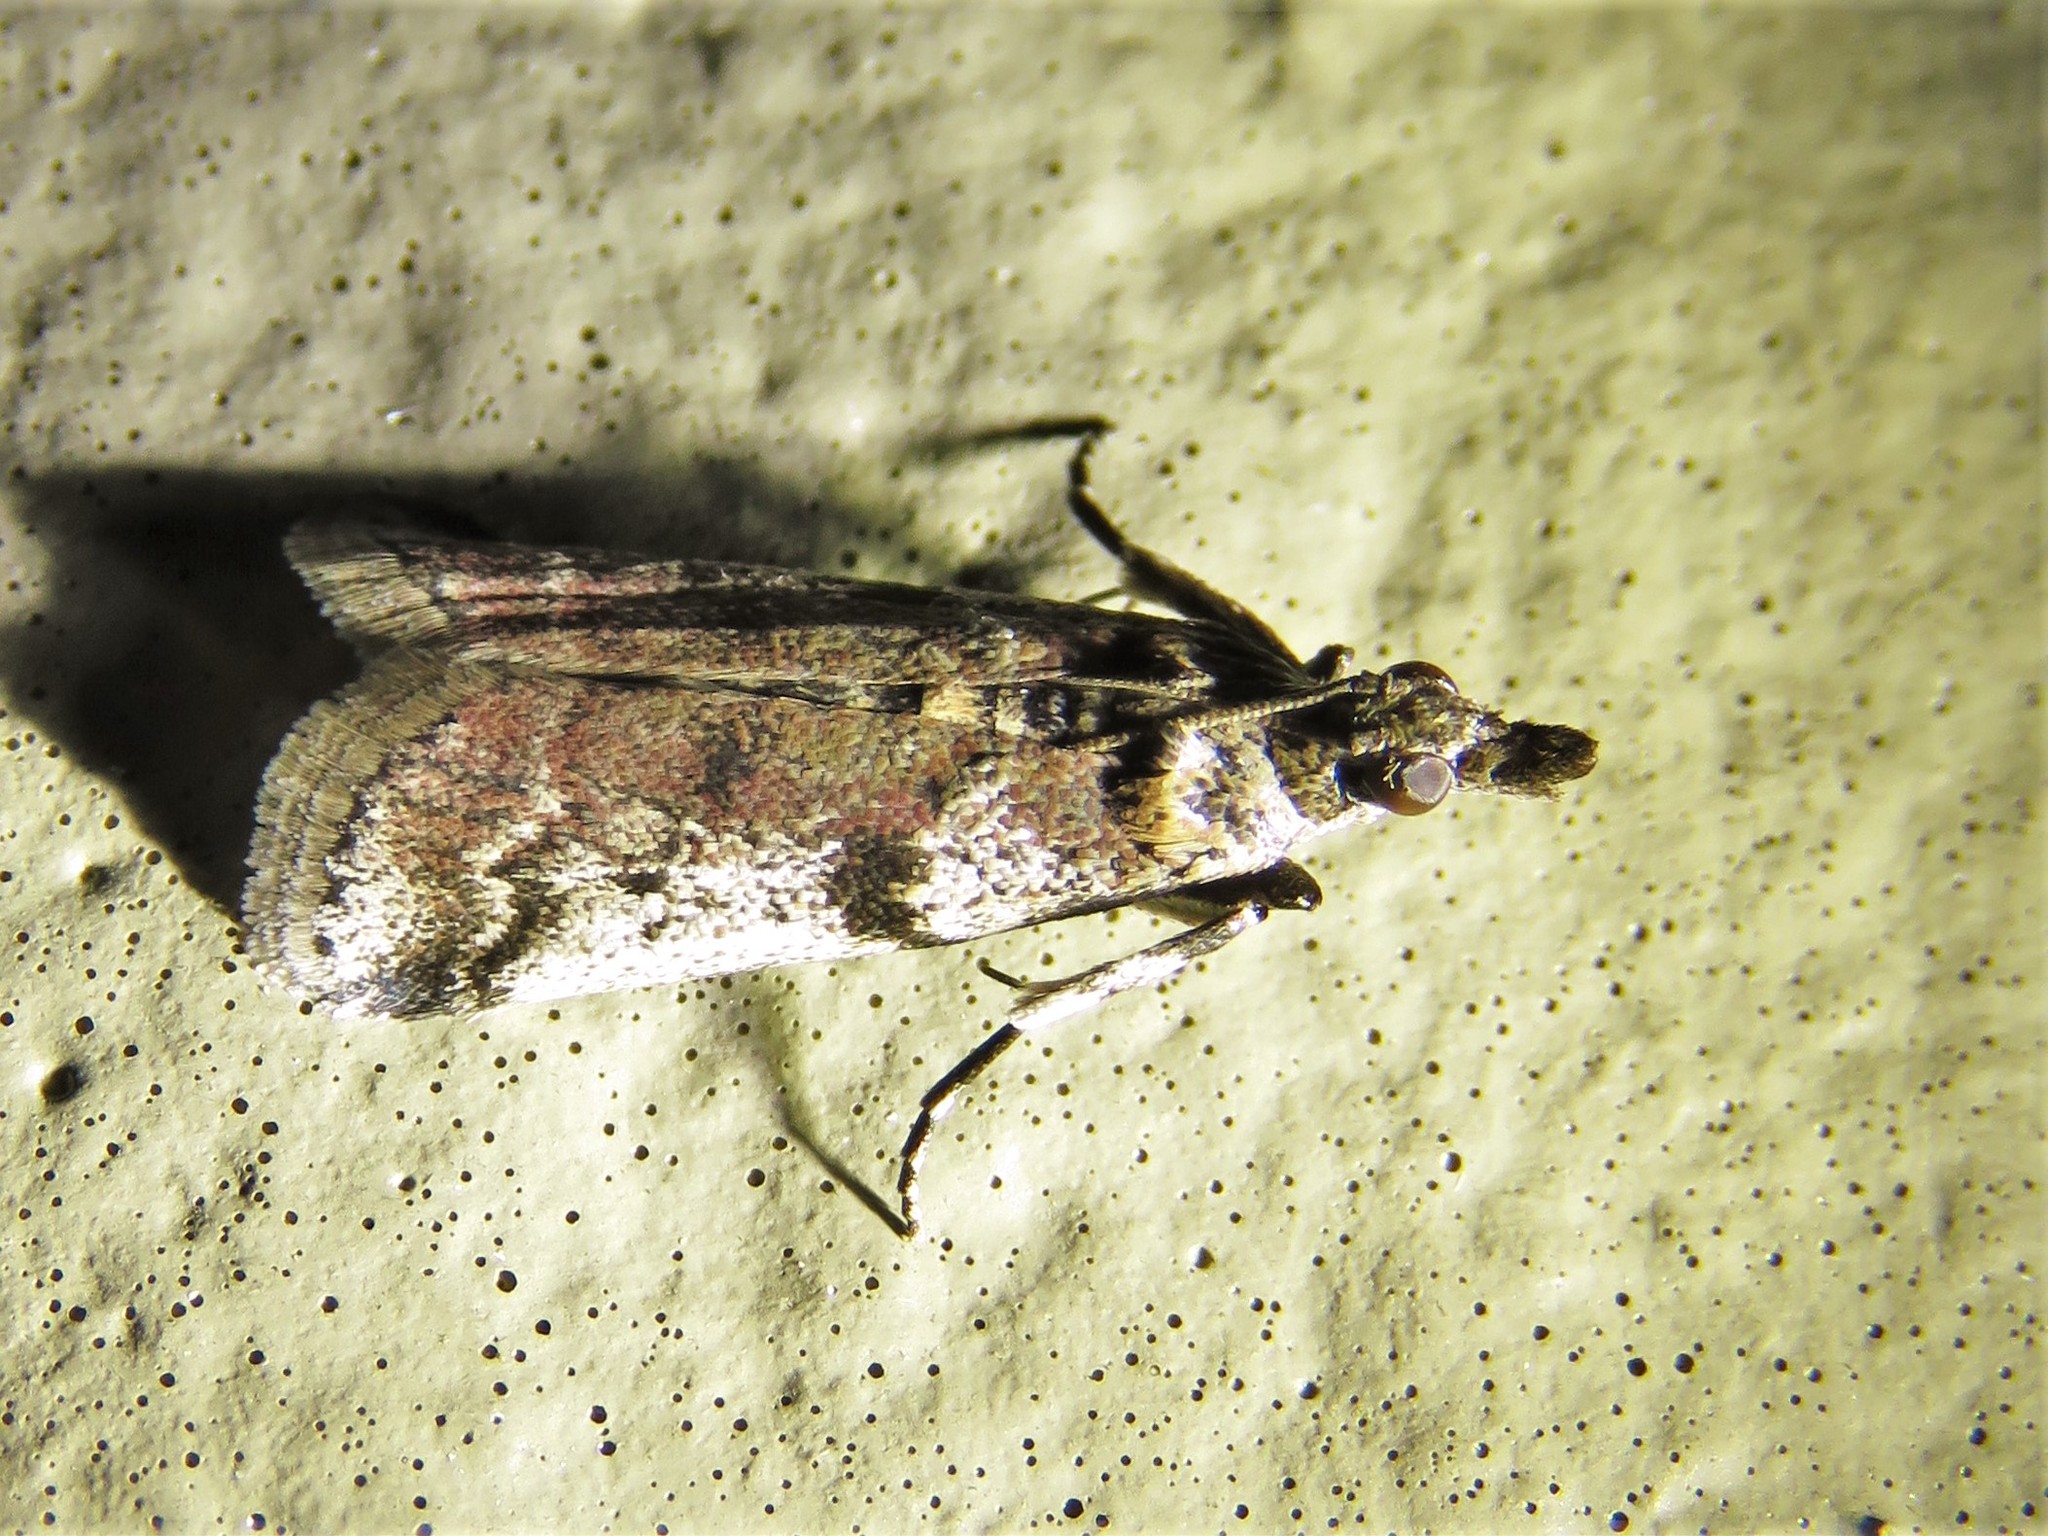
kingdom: Animalia
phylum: Arthropoda
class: Insecta
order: Lepidoptera
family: Pyralidae
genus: Laetilia
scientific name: Laetilia coccidivora
